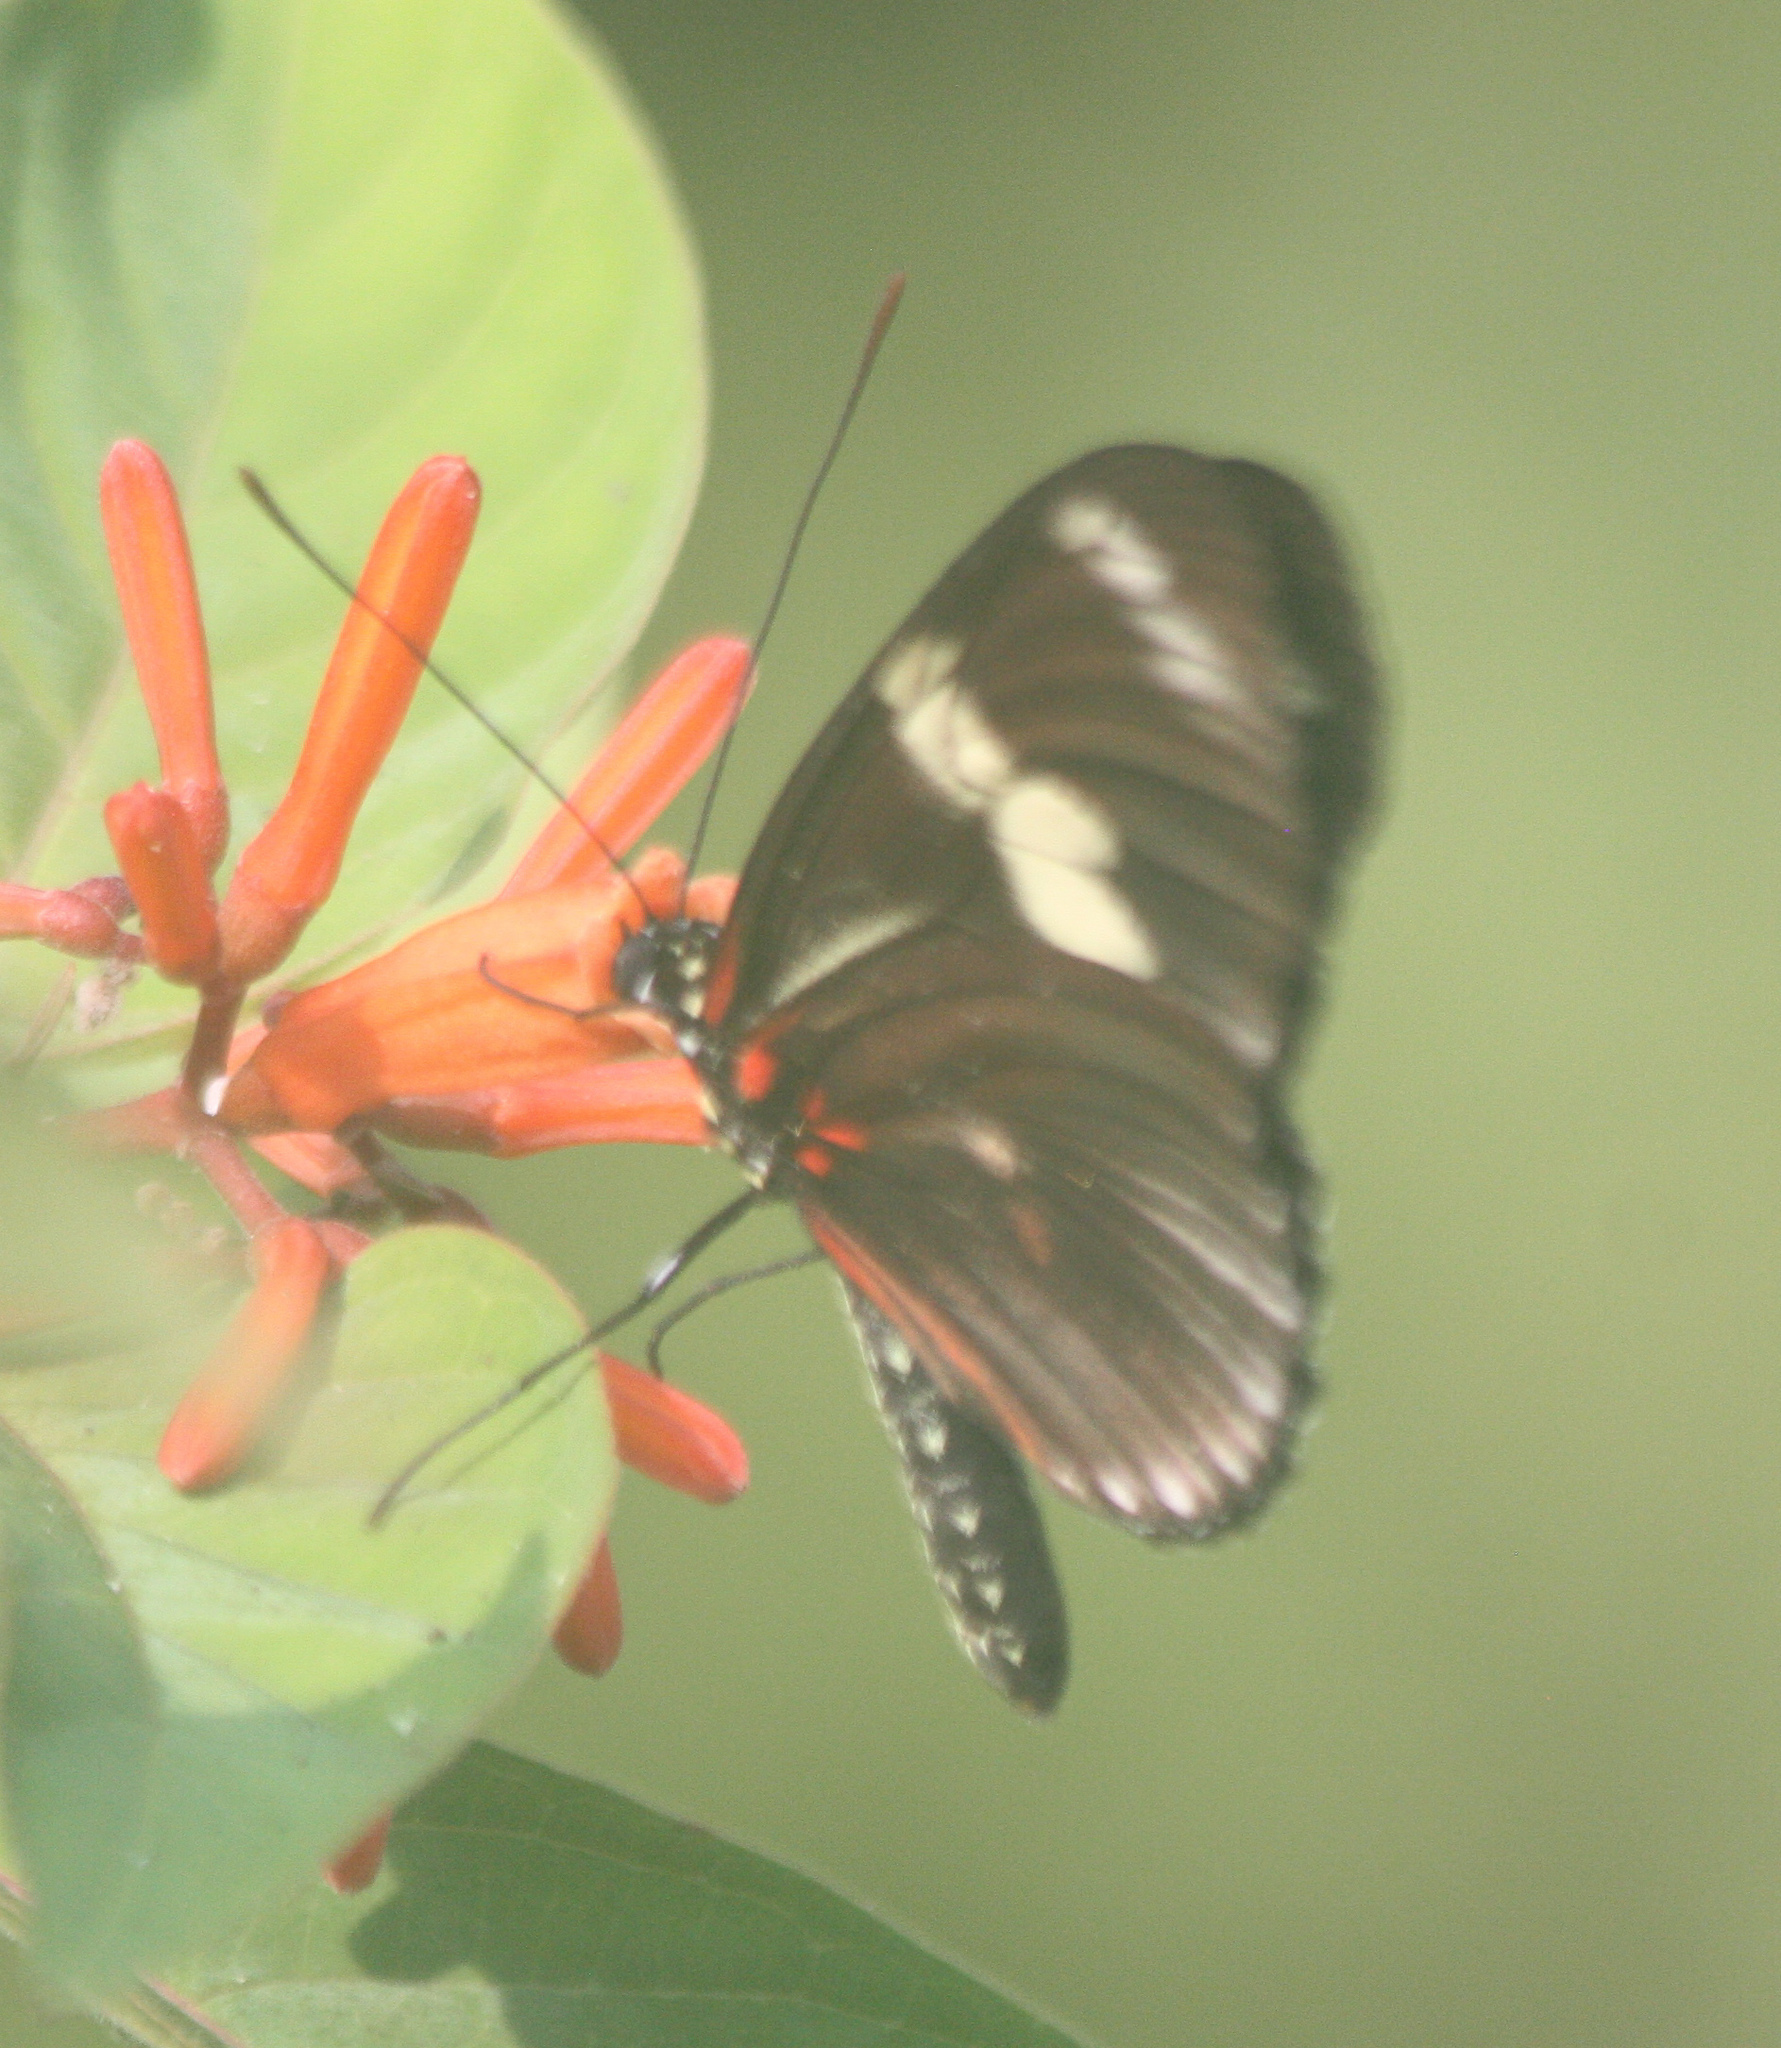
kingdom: Animalia
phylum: Arthropoda
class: Insecta
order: Lepidoptera
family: Nymphalidae
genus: Heliconius
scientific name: Heliconius doris
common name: Doris longwing
